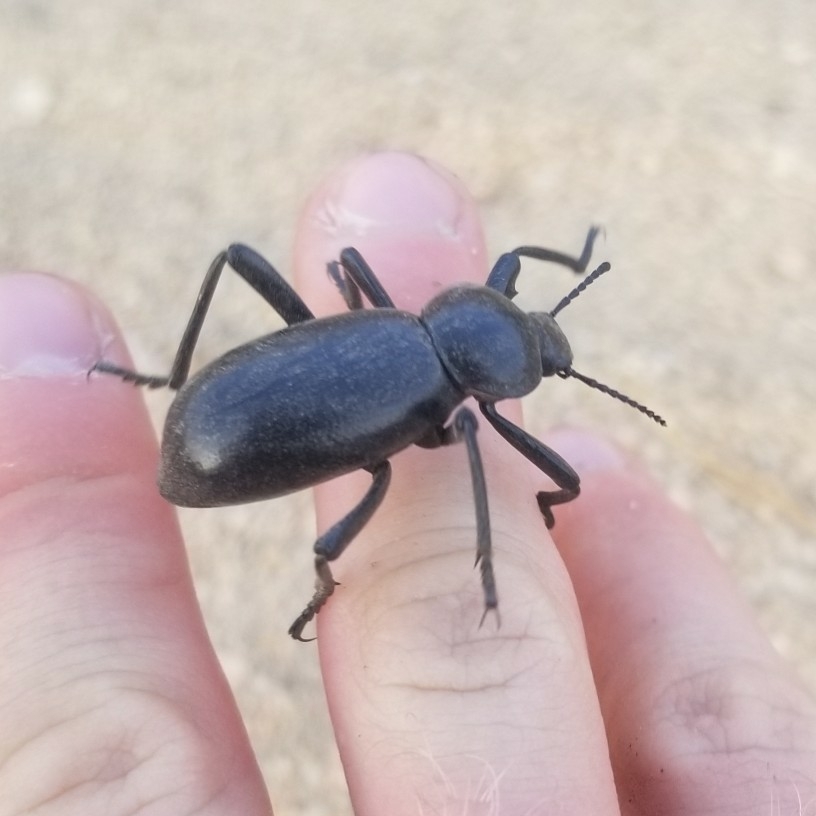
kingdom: Animalia
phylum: Arthropoda
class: Insecta
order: Coleoptera
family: Tenebrionidae
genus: Eleodes
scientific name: Eleodes grandicollis
